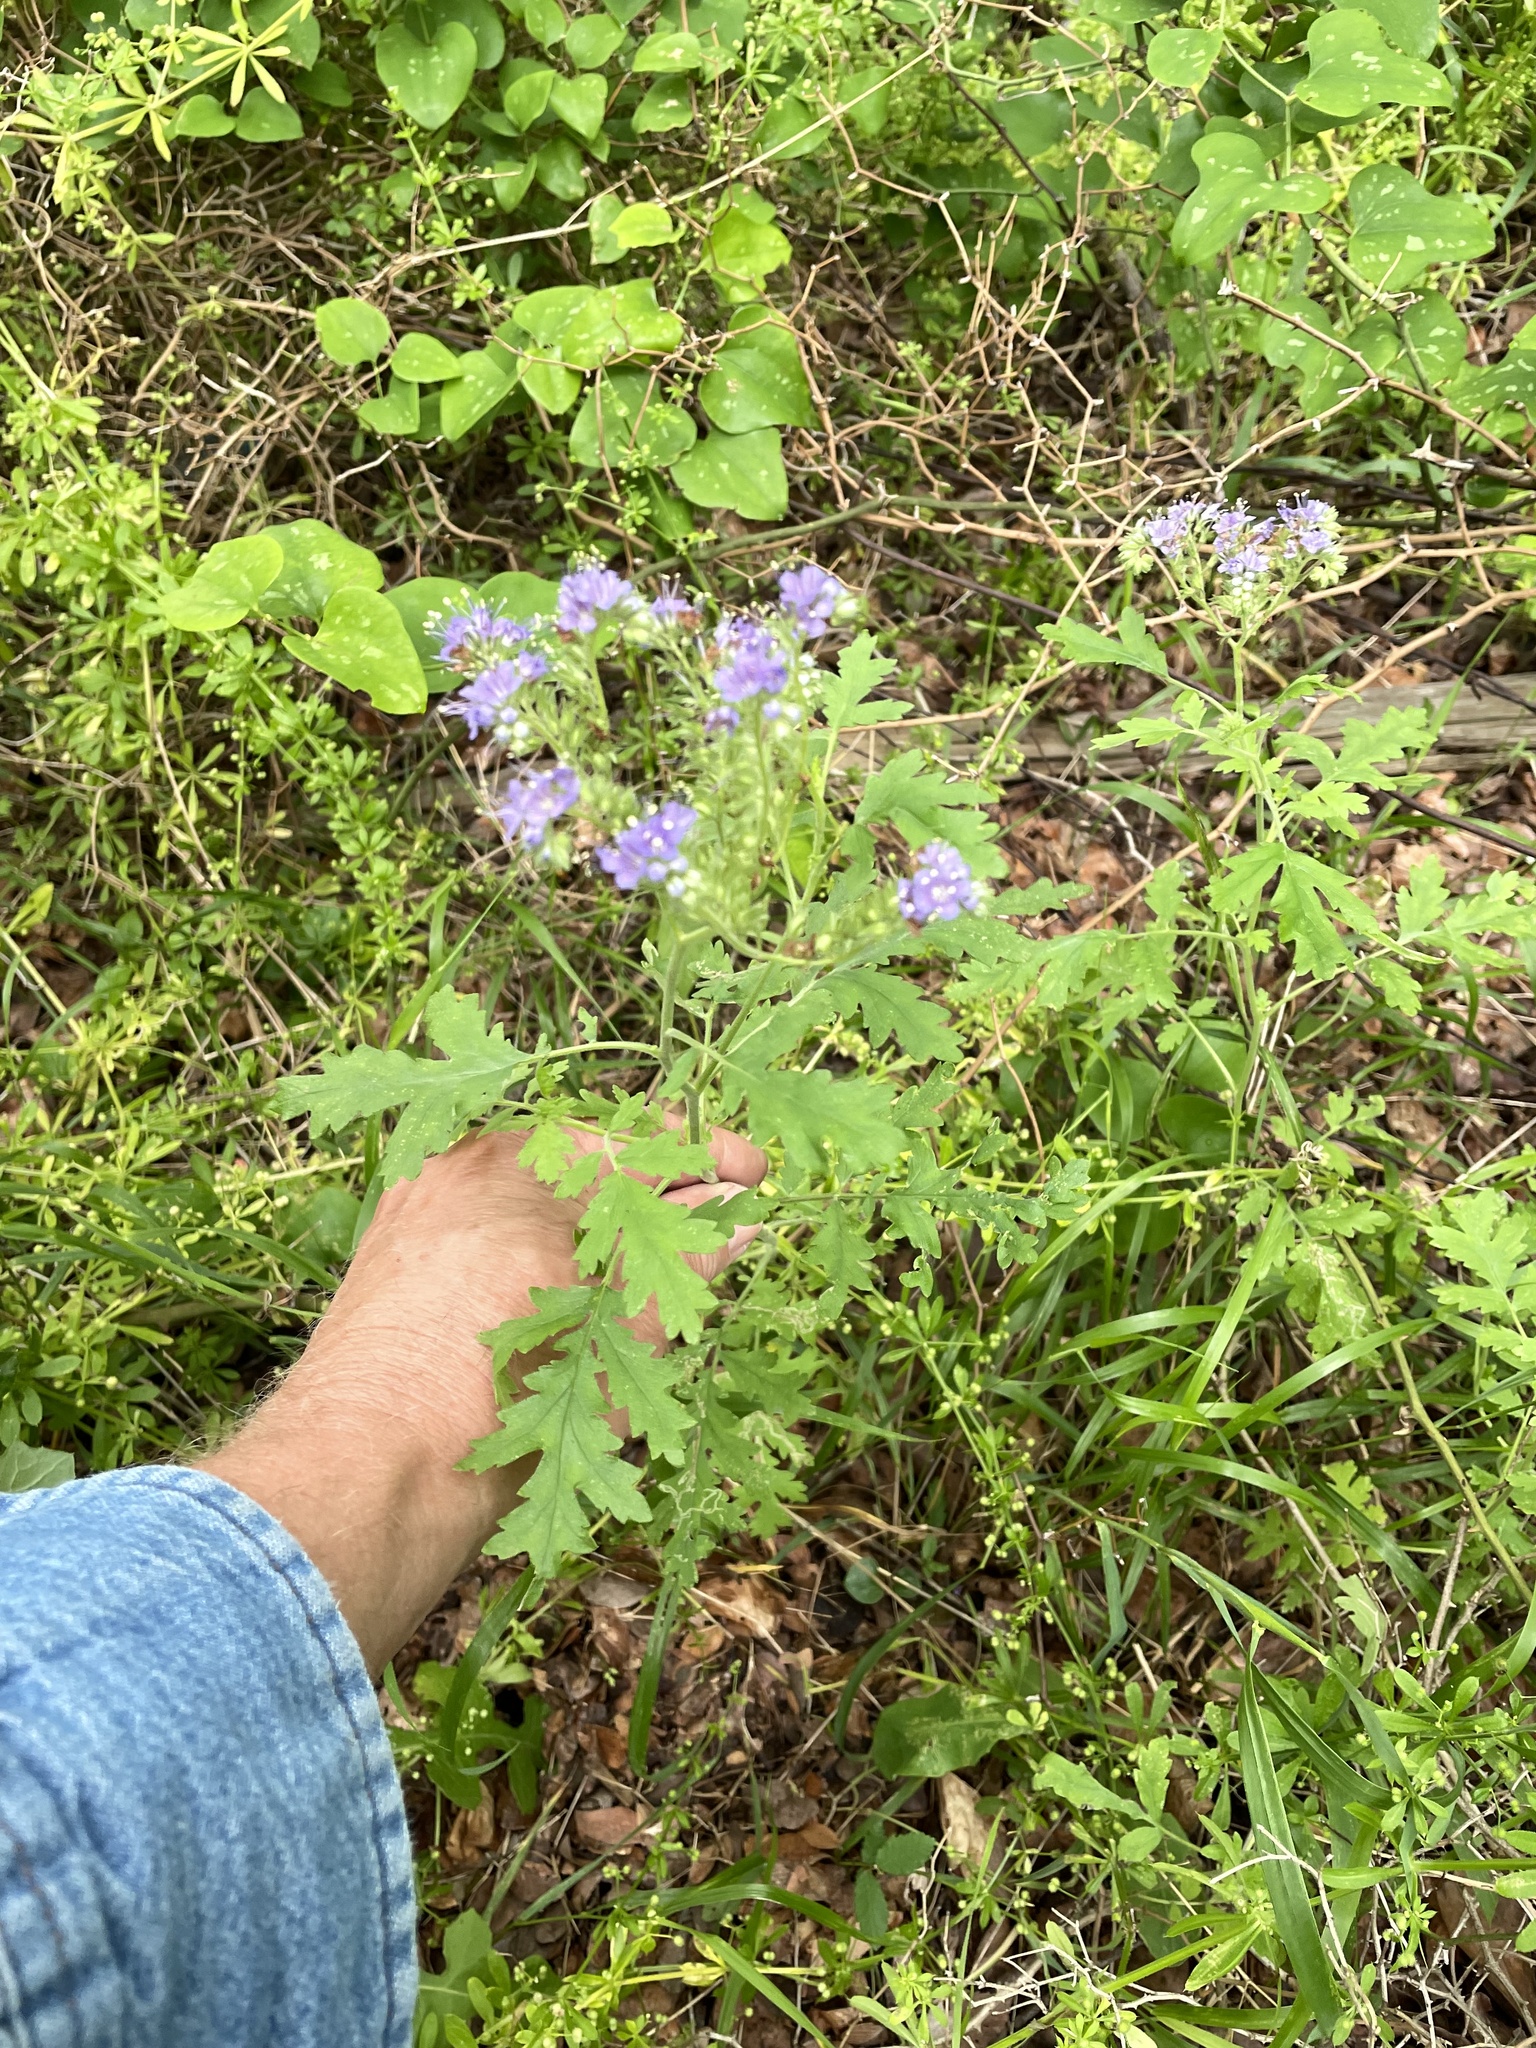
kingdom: Plantae
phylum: Tracheophyta
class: Magnoliopsida
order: Boraginales
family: Hydrophyllaceae
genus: Phacelia
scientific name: Phacelia congesta
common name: Blue curls
